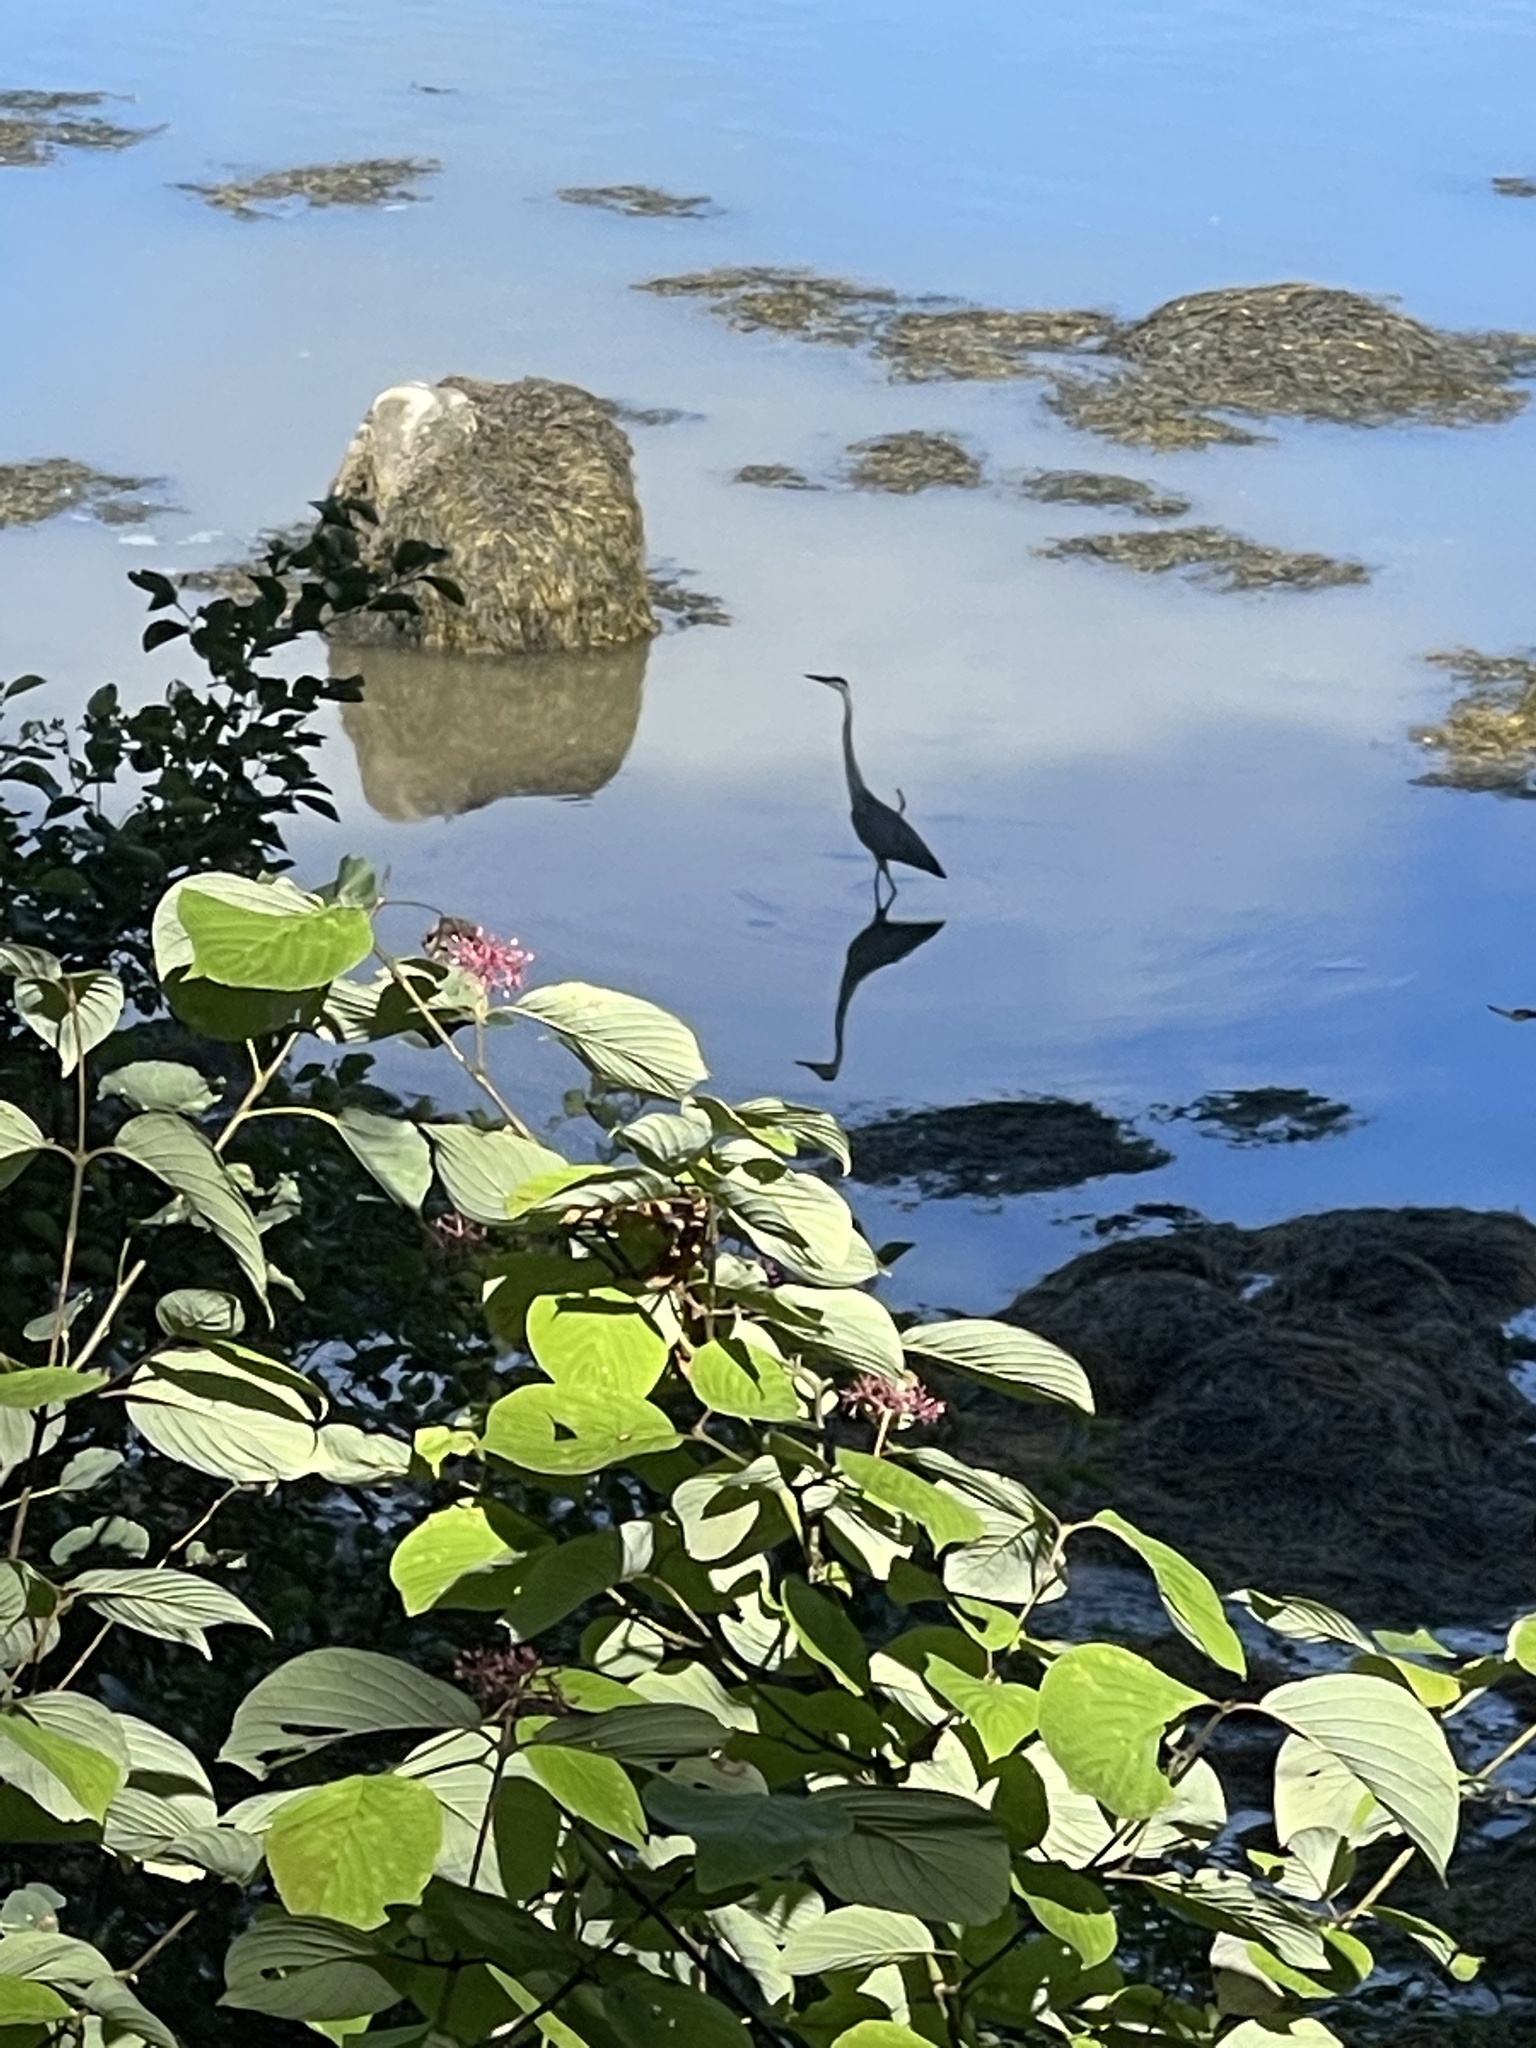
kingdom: Animalia
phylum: Chordata
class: Aves
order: Pelecaniformes
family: Ardeidae
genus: Ardea
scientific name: Ardea herodias
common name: Great blue heron
